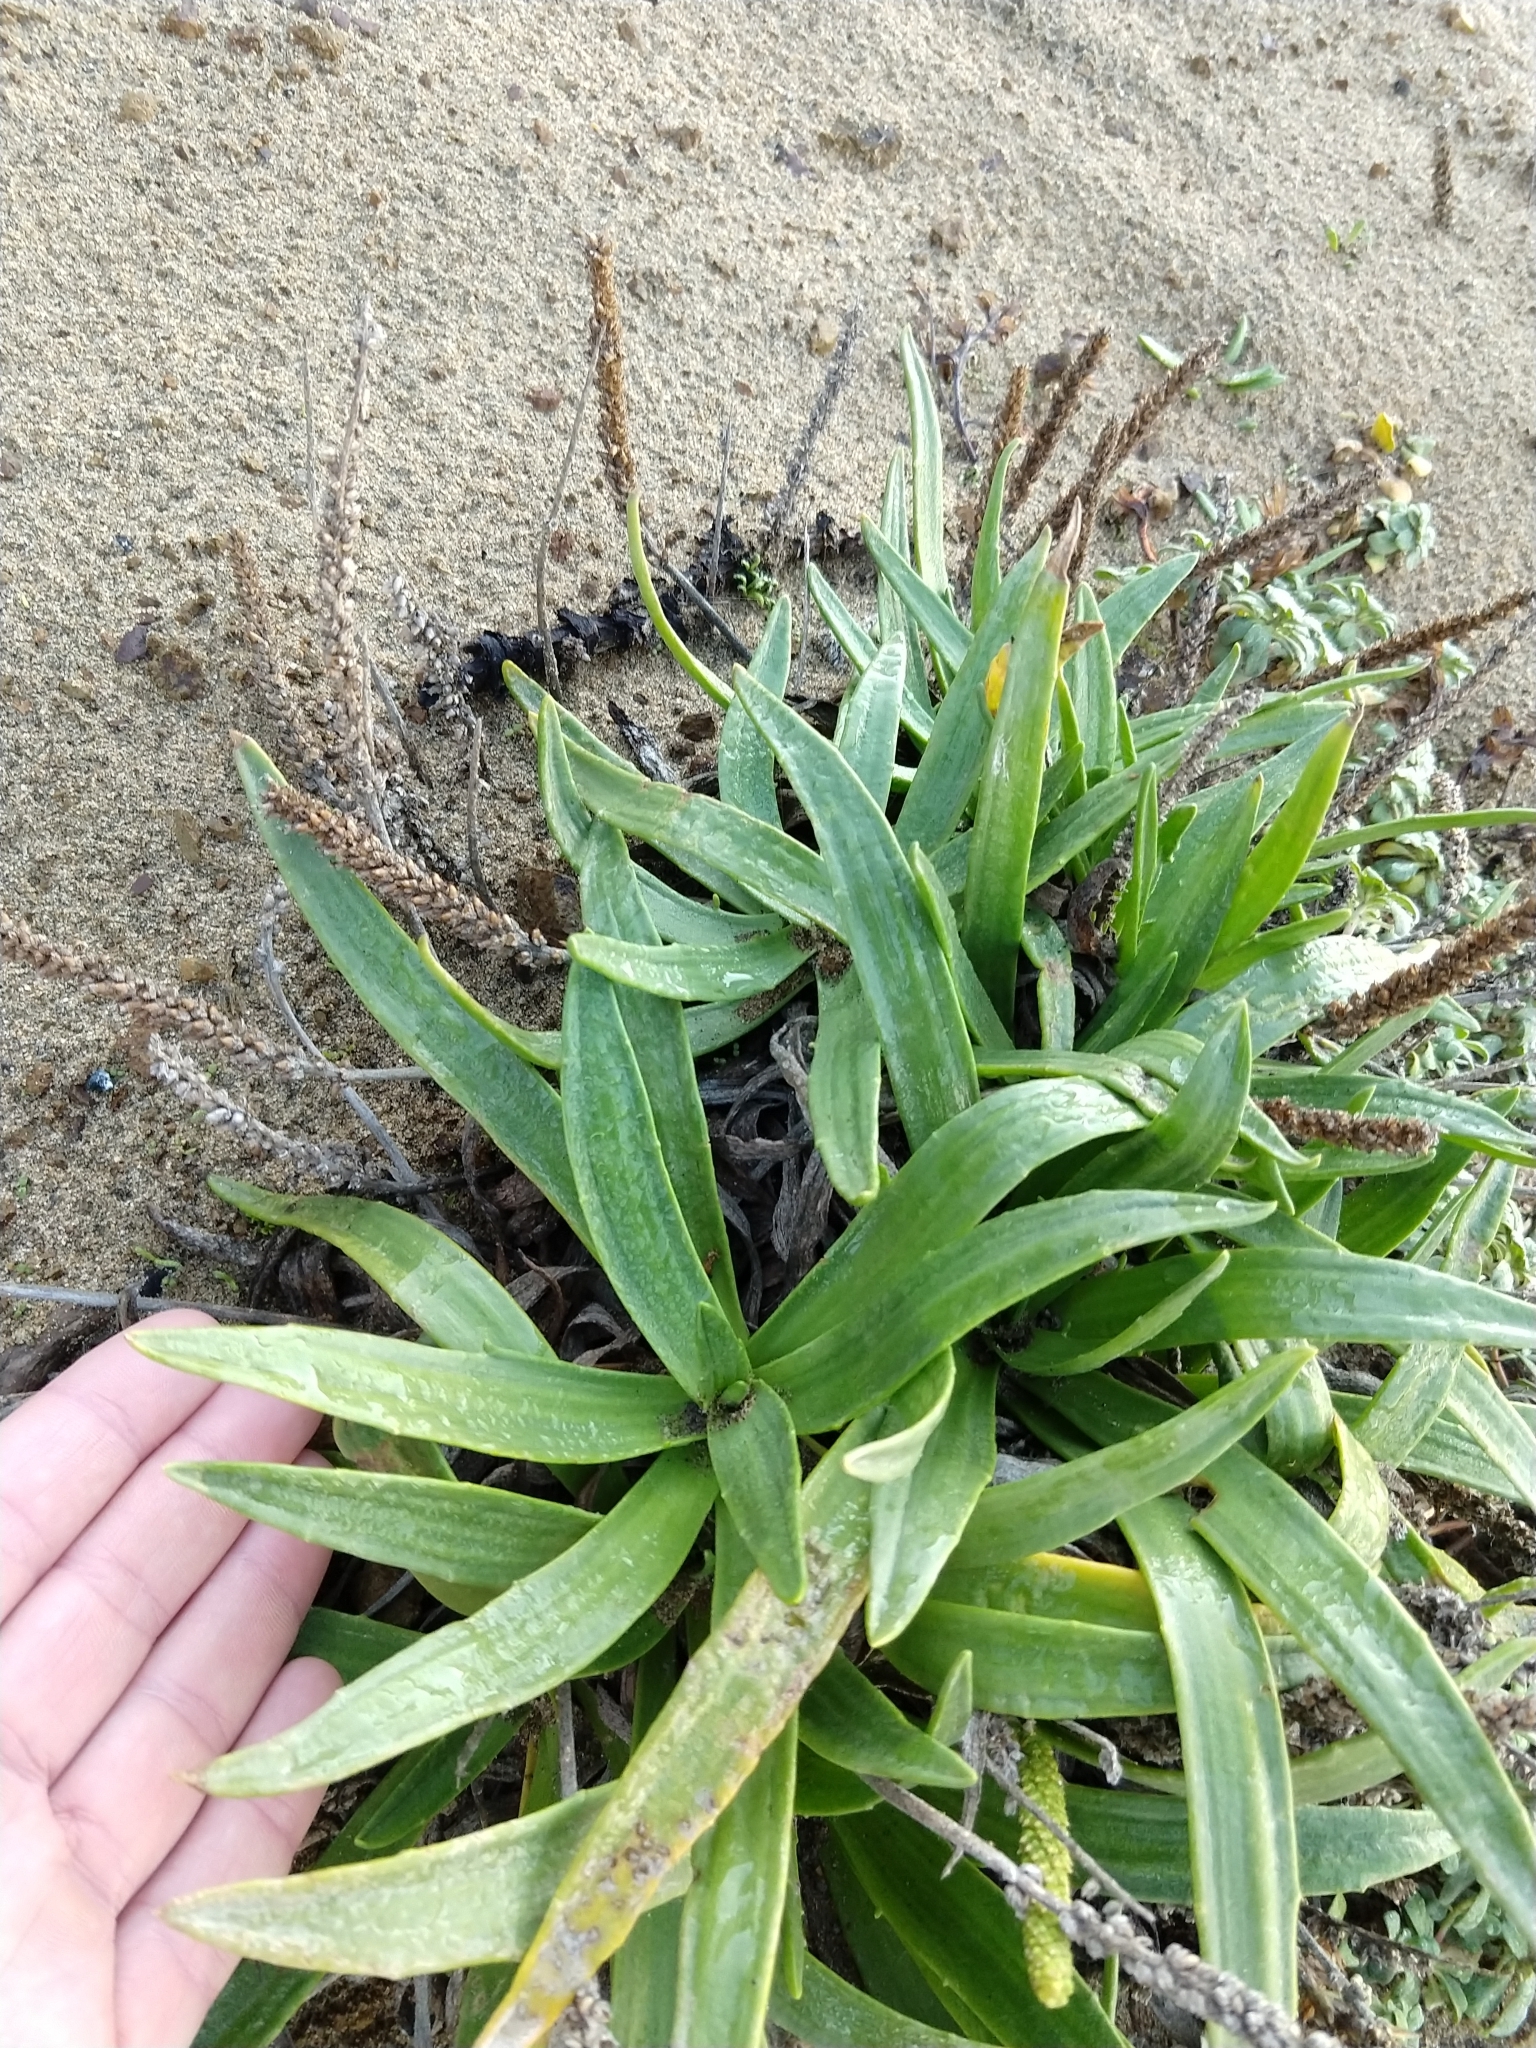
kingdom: Plantae
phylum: Tracheophyta
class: Magnoliopsida
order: Lamiales
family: Plantaginaceae
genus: Plantago
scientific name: Plantago maritima
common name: Sea plantain
